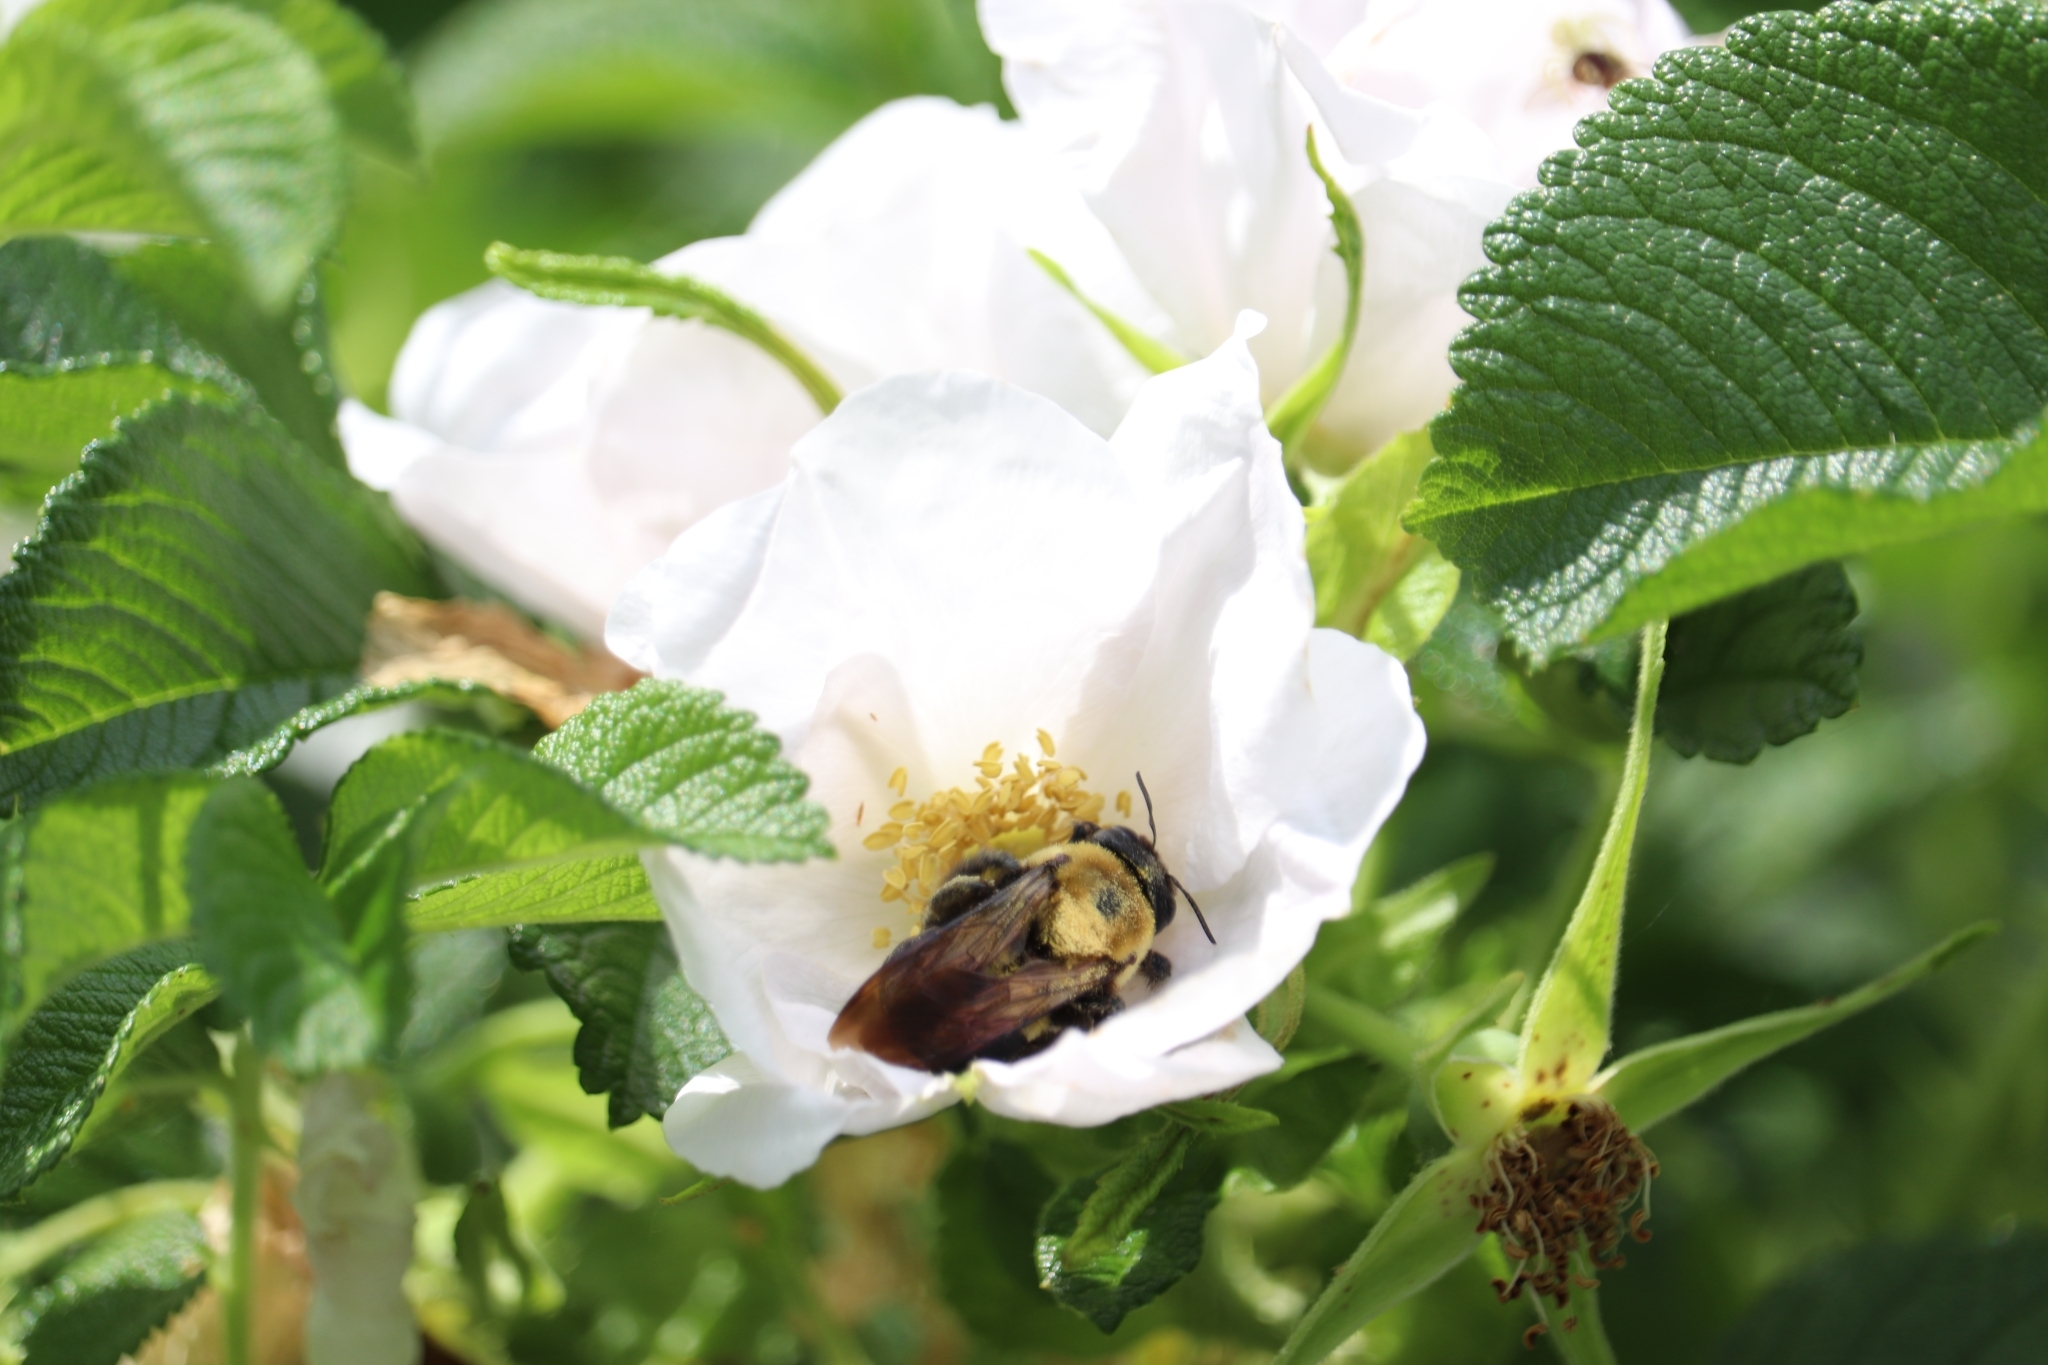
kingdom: Animalia
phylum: Arthropoda
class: Insecta
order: Hymenoptera
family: Apidae
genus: Xylocopa
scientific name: Xylocopa virginica
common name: Carpenter bee
